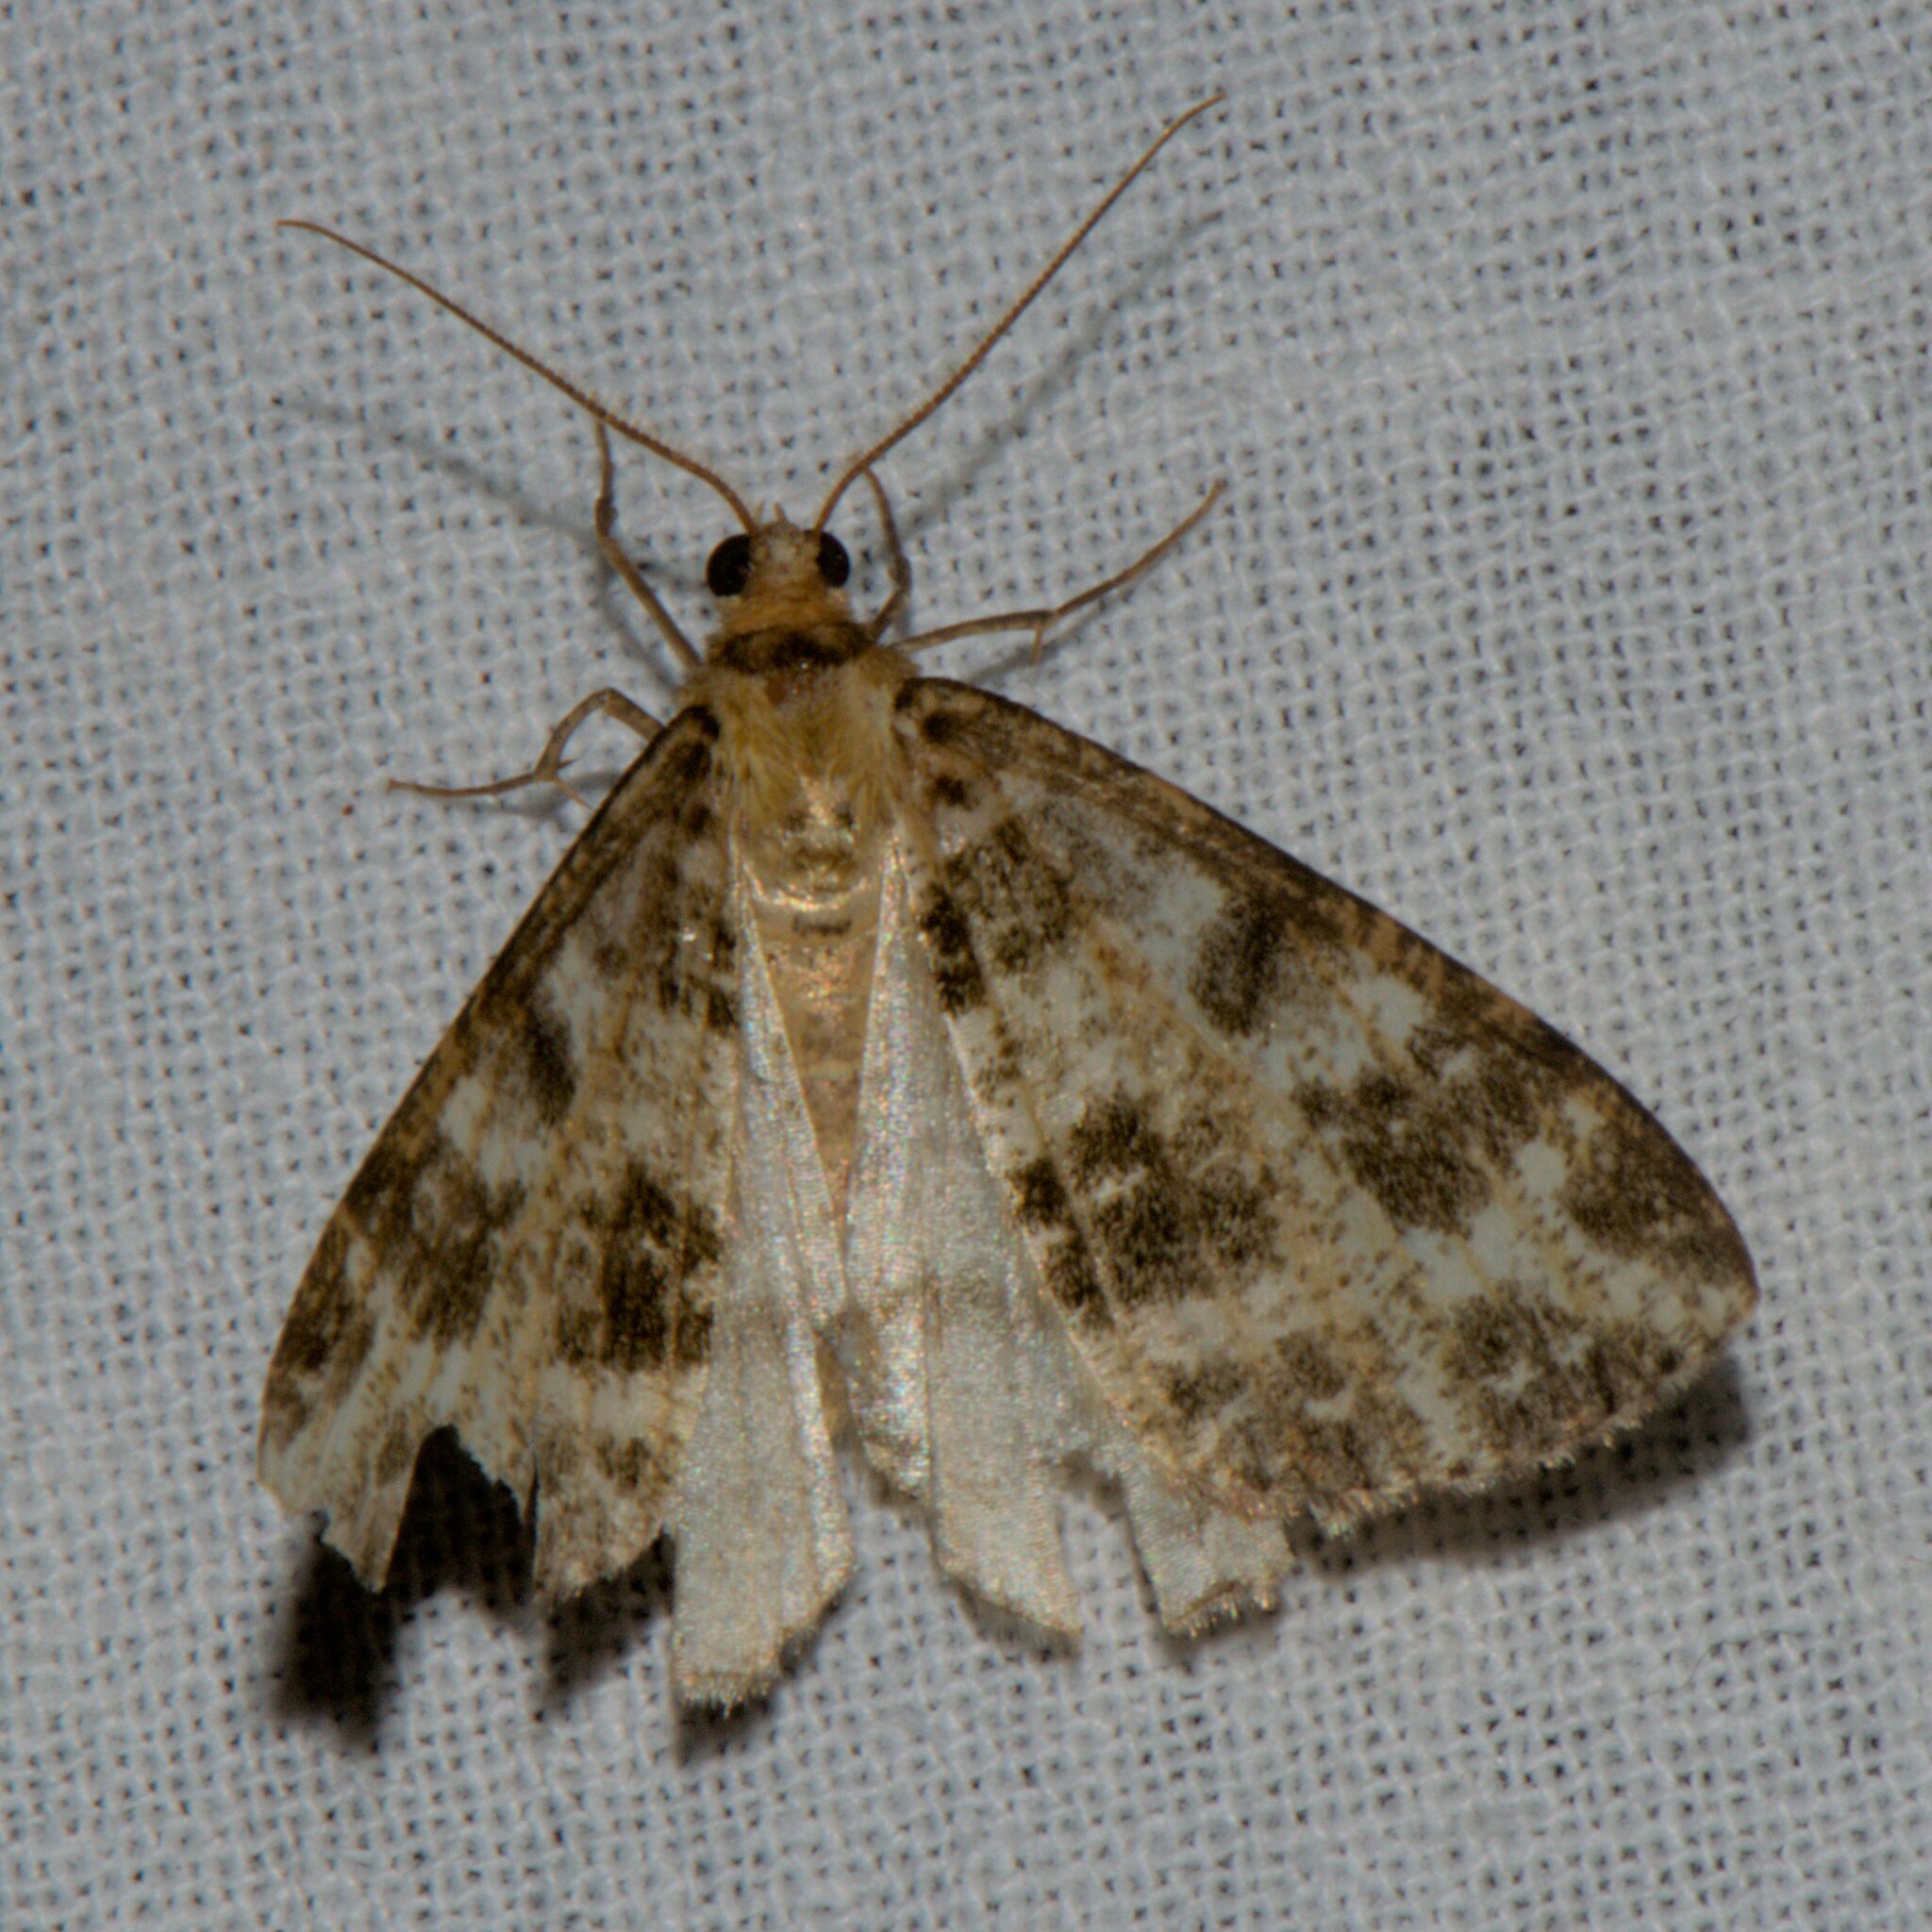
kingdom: Animalia
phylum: Arthropoda
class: Insecta
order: Lepidoptera
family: Geometridae
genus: Arichanna
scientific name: Arichanna interplagata
